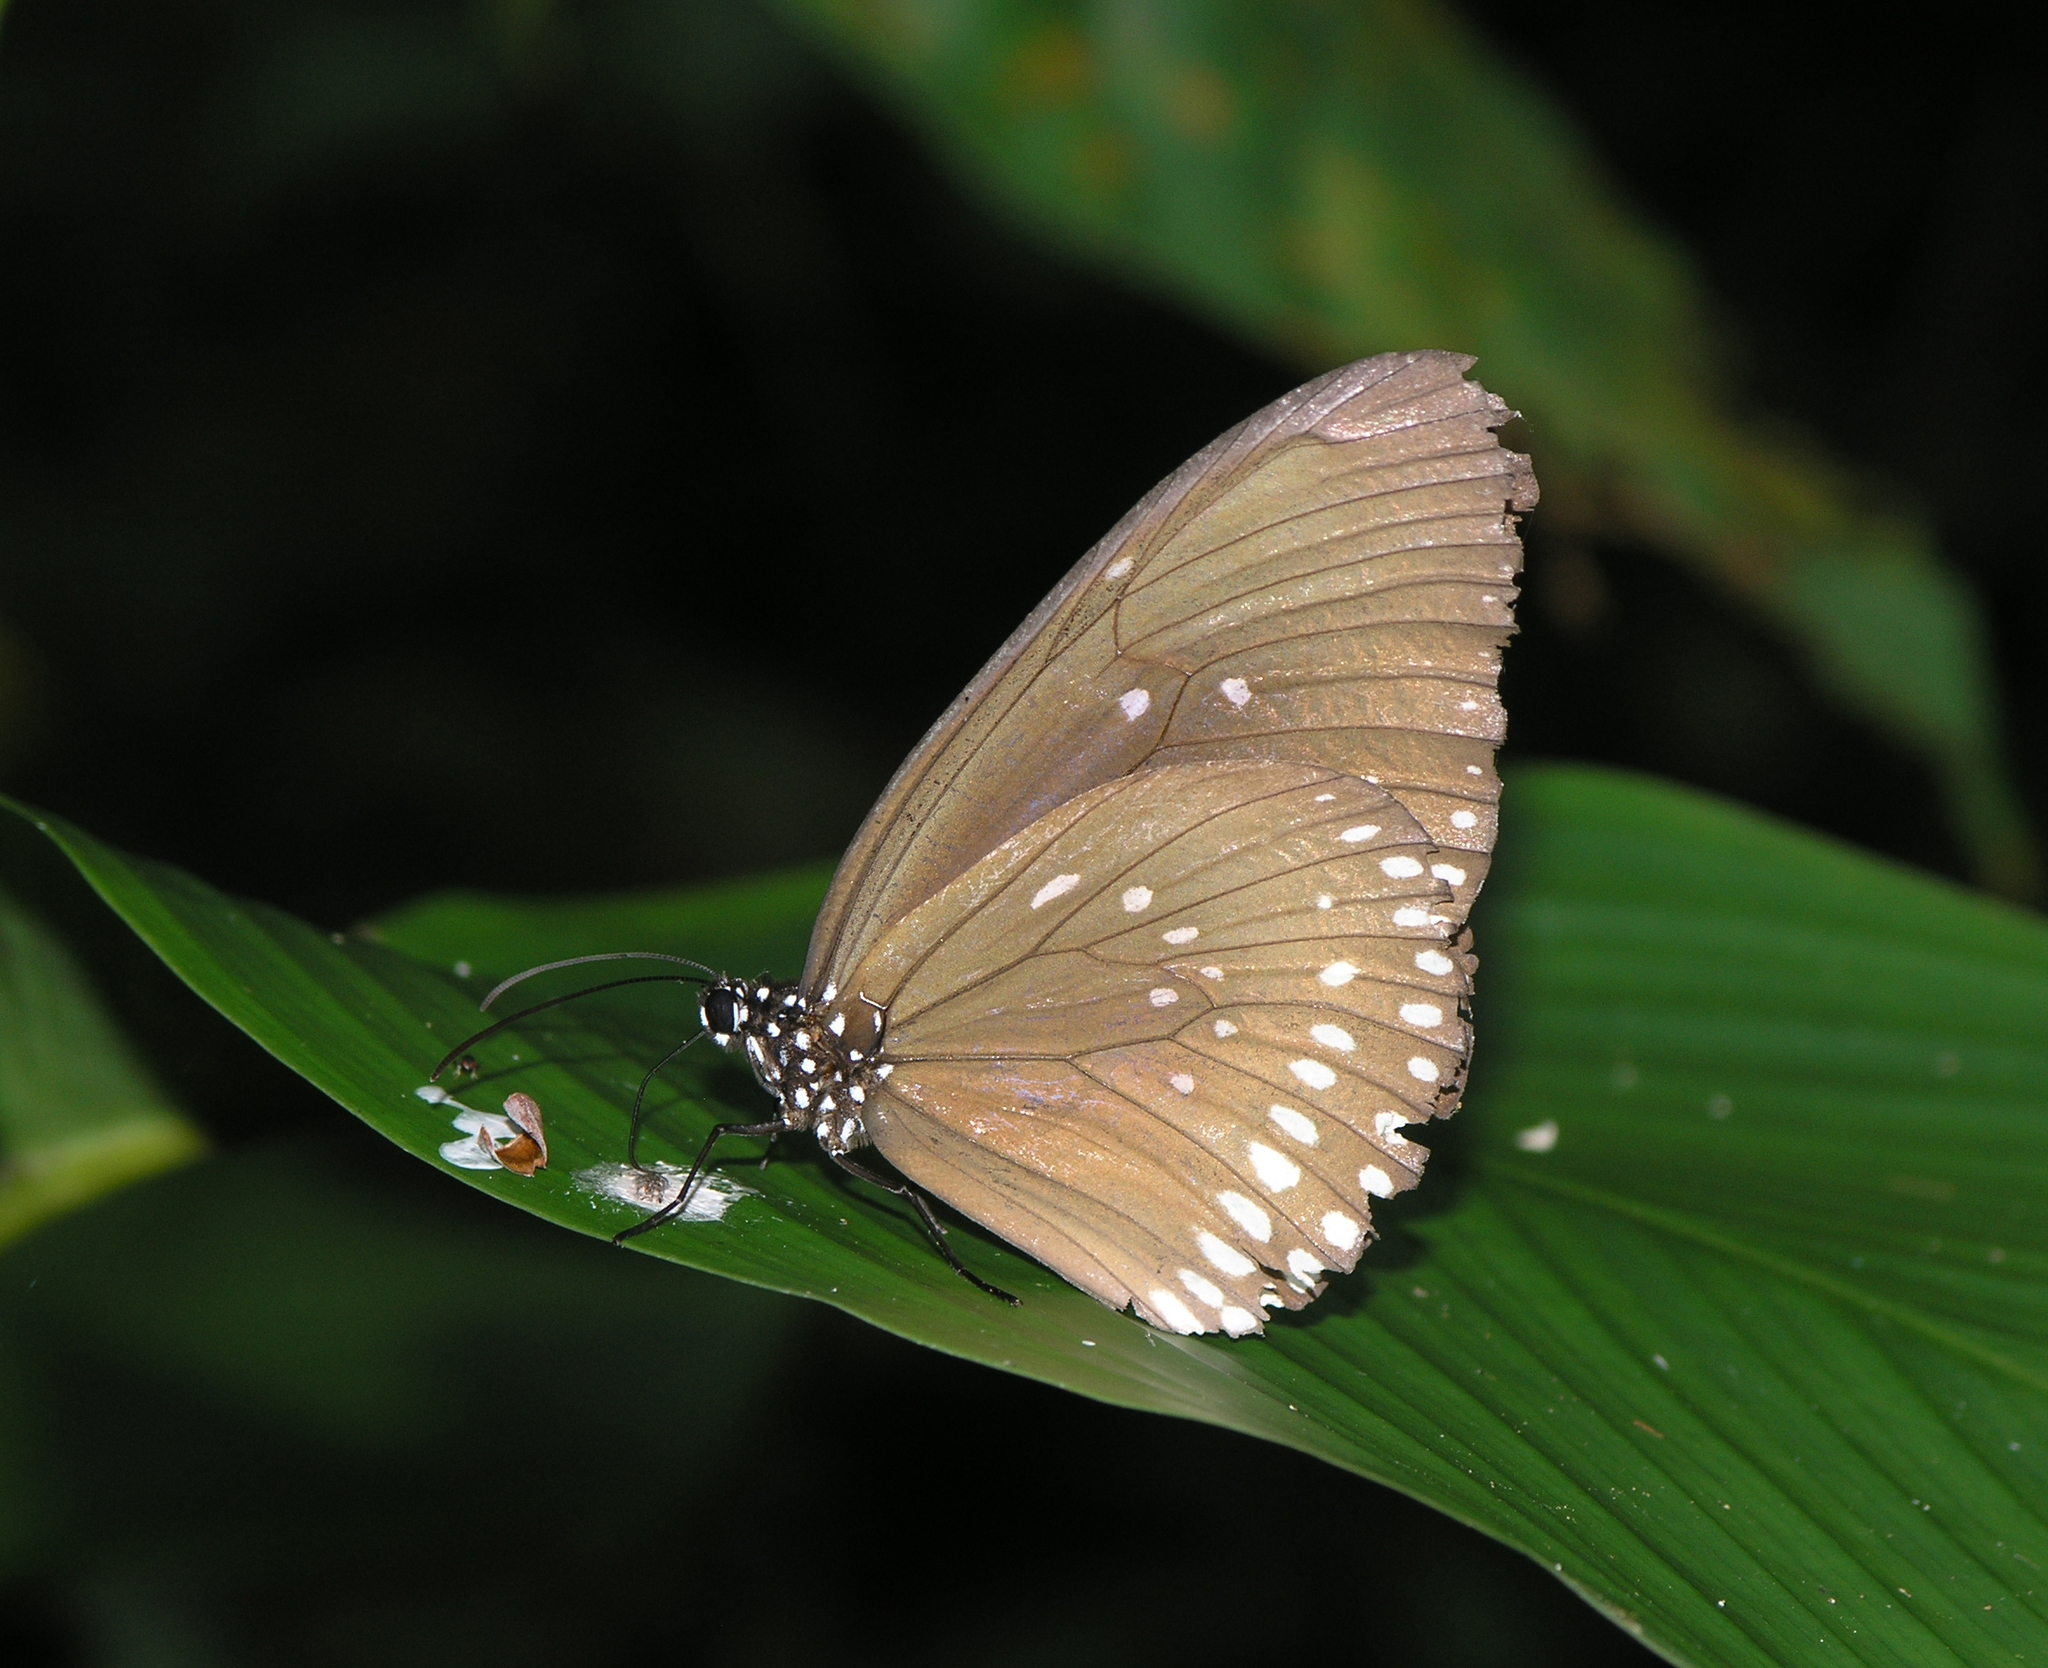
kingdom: Animalia
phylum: Arthropoda
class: Insecta
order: Lepidoptera
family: Nymphalidae
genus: Euploea
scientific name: Euploea core
